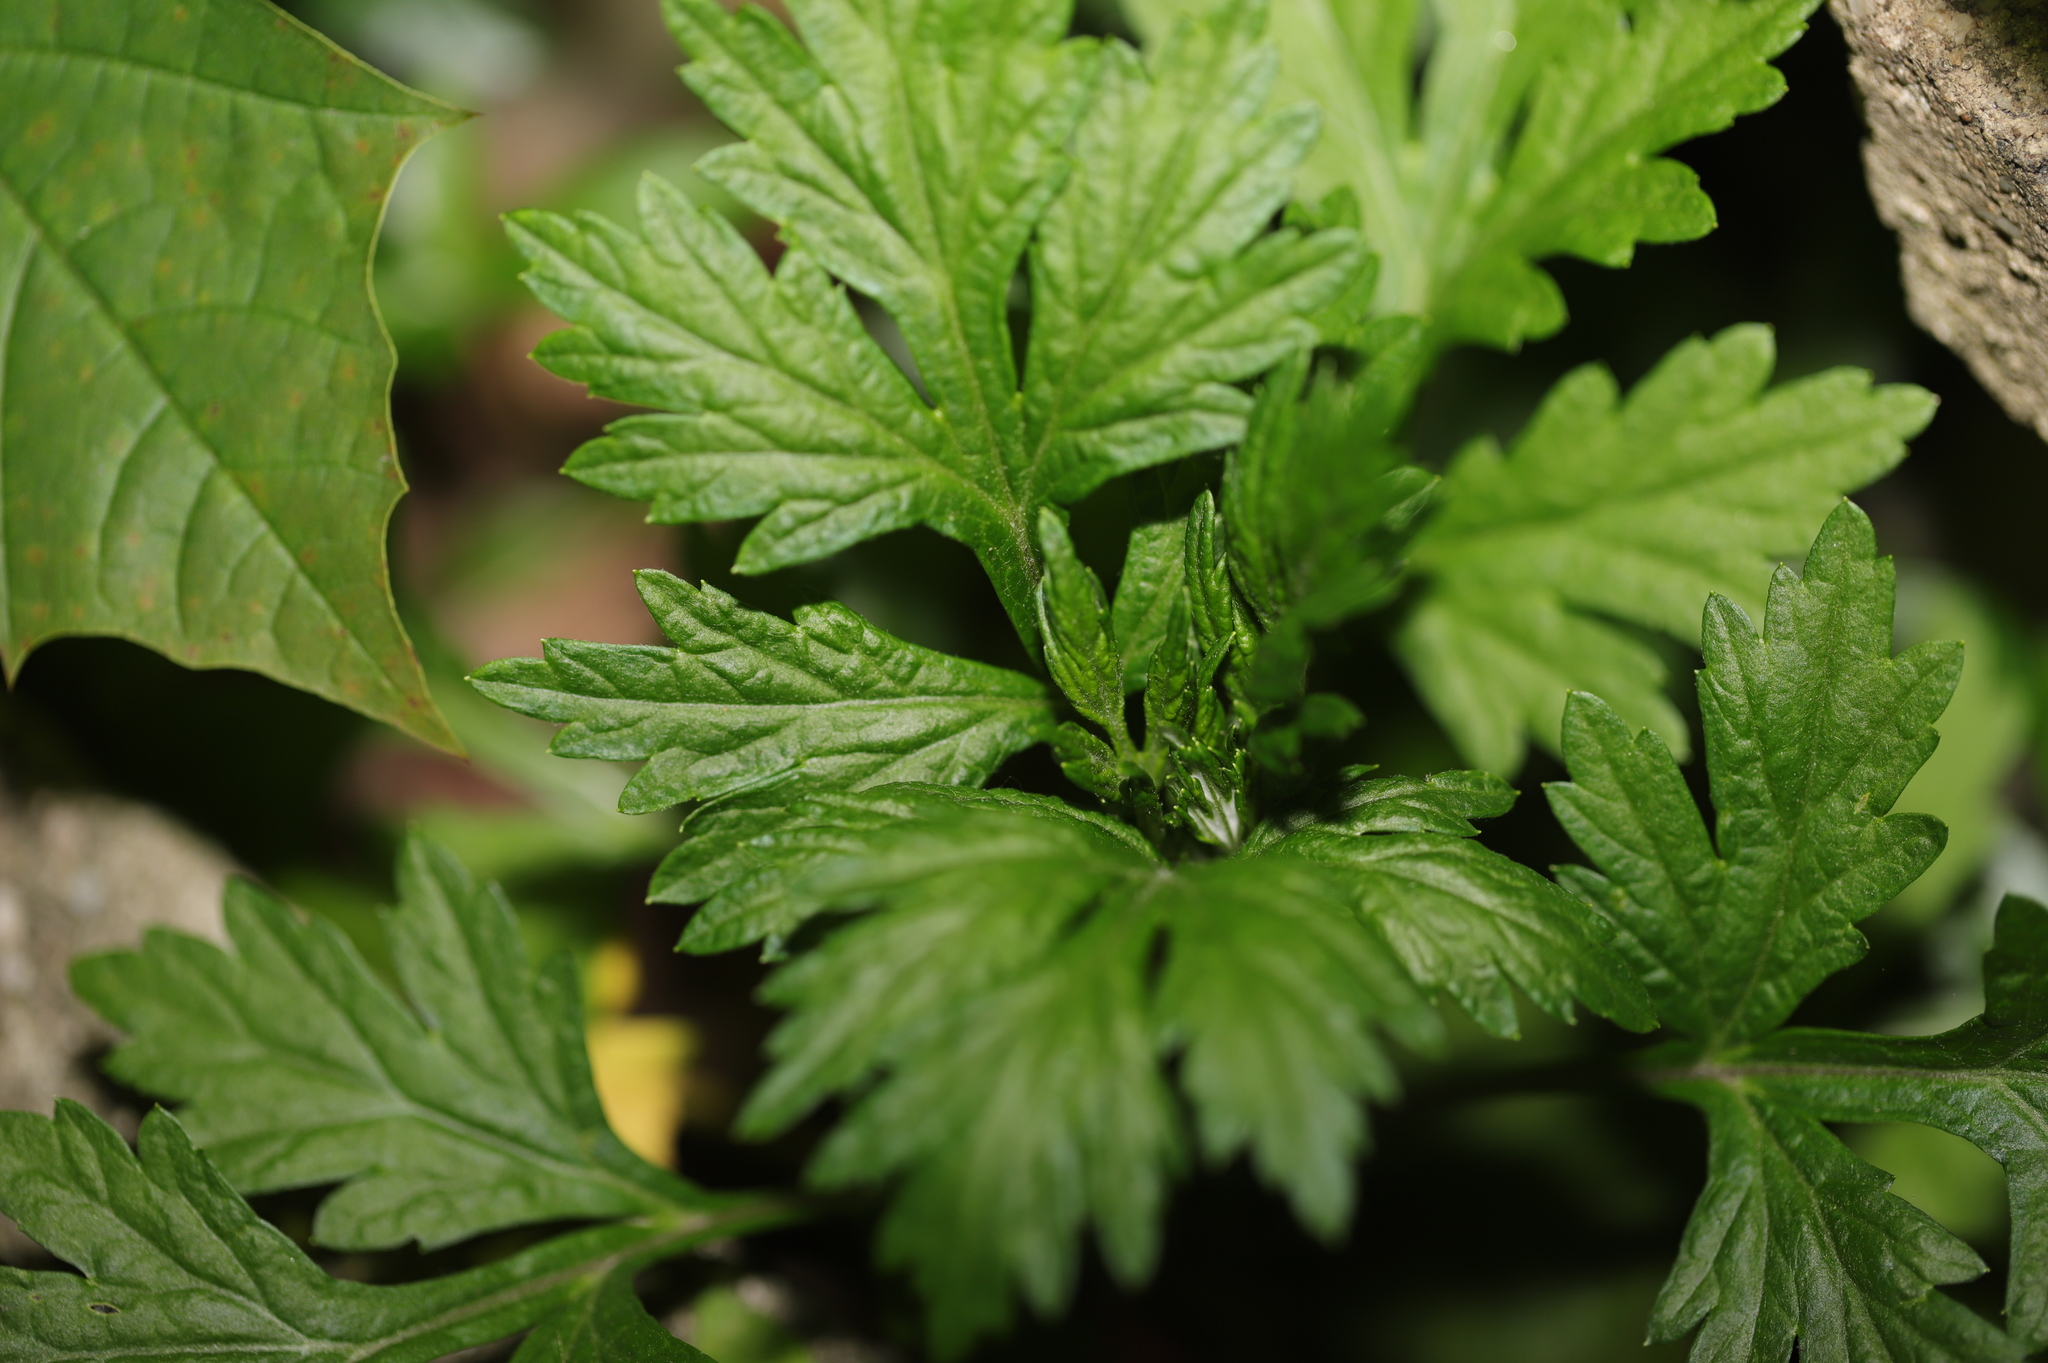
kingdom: Plantae
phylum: Tracheophyta
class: Magnoliopsida
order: Asterales
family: Asteraceae
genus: Artemisia
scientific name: Artemisia vulgaris
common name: Mugwort
